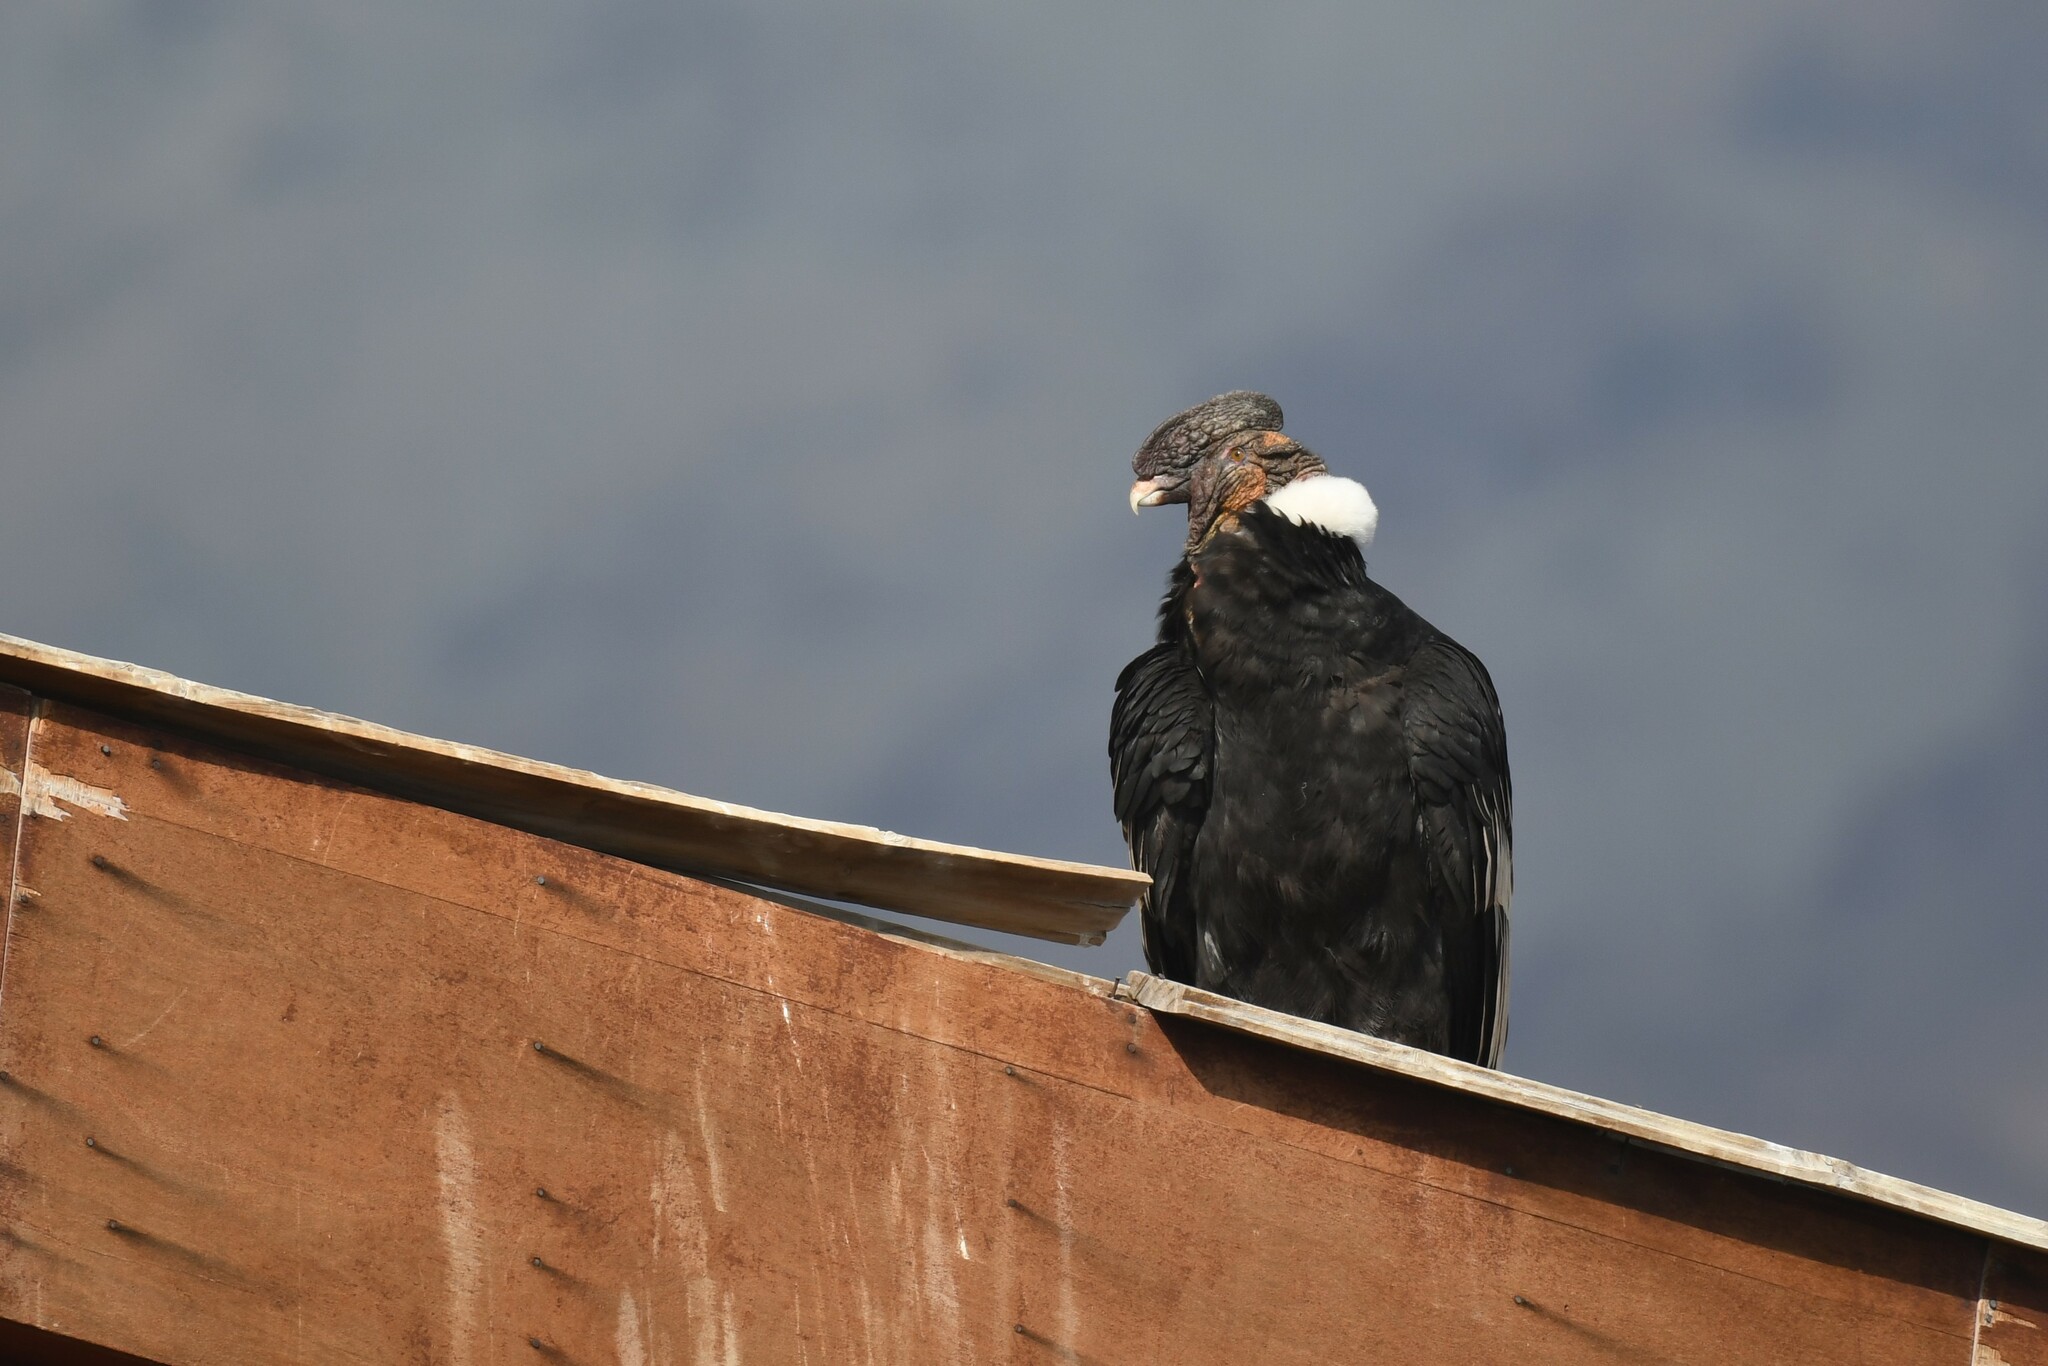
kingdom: Animalia
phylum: Chordata
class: Aves
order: Accipitriformes
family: Cathartidae
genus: Vultur
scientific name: Vultur gryphus
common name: Andean condor
